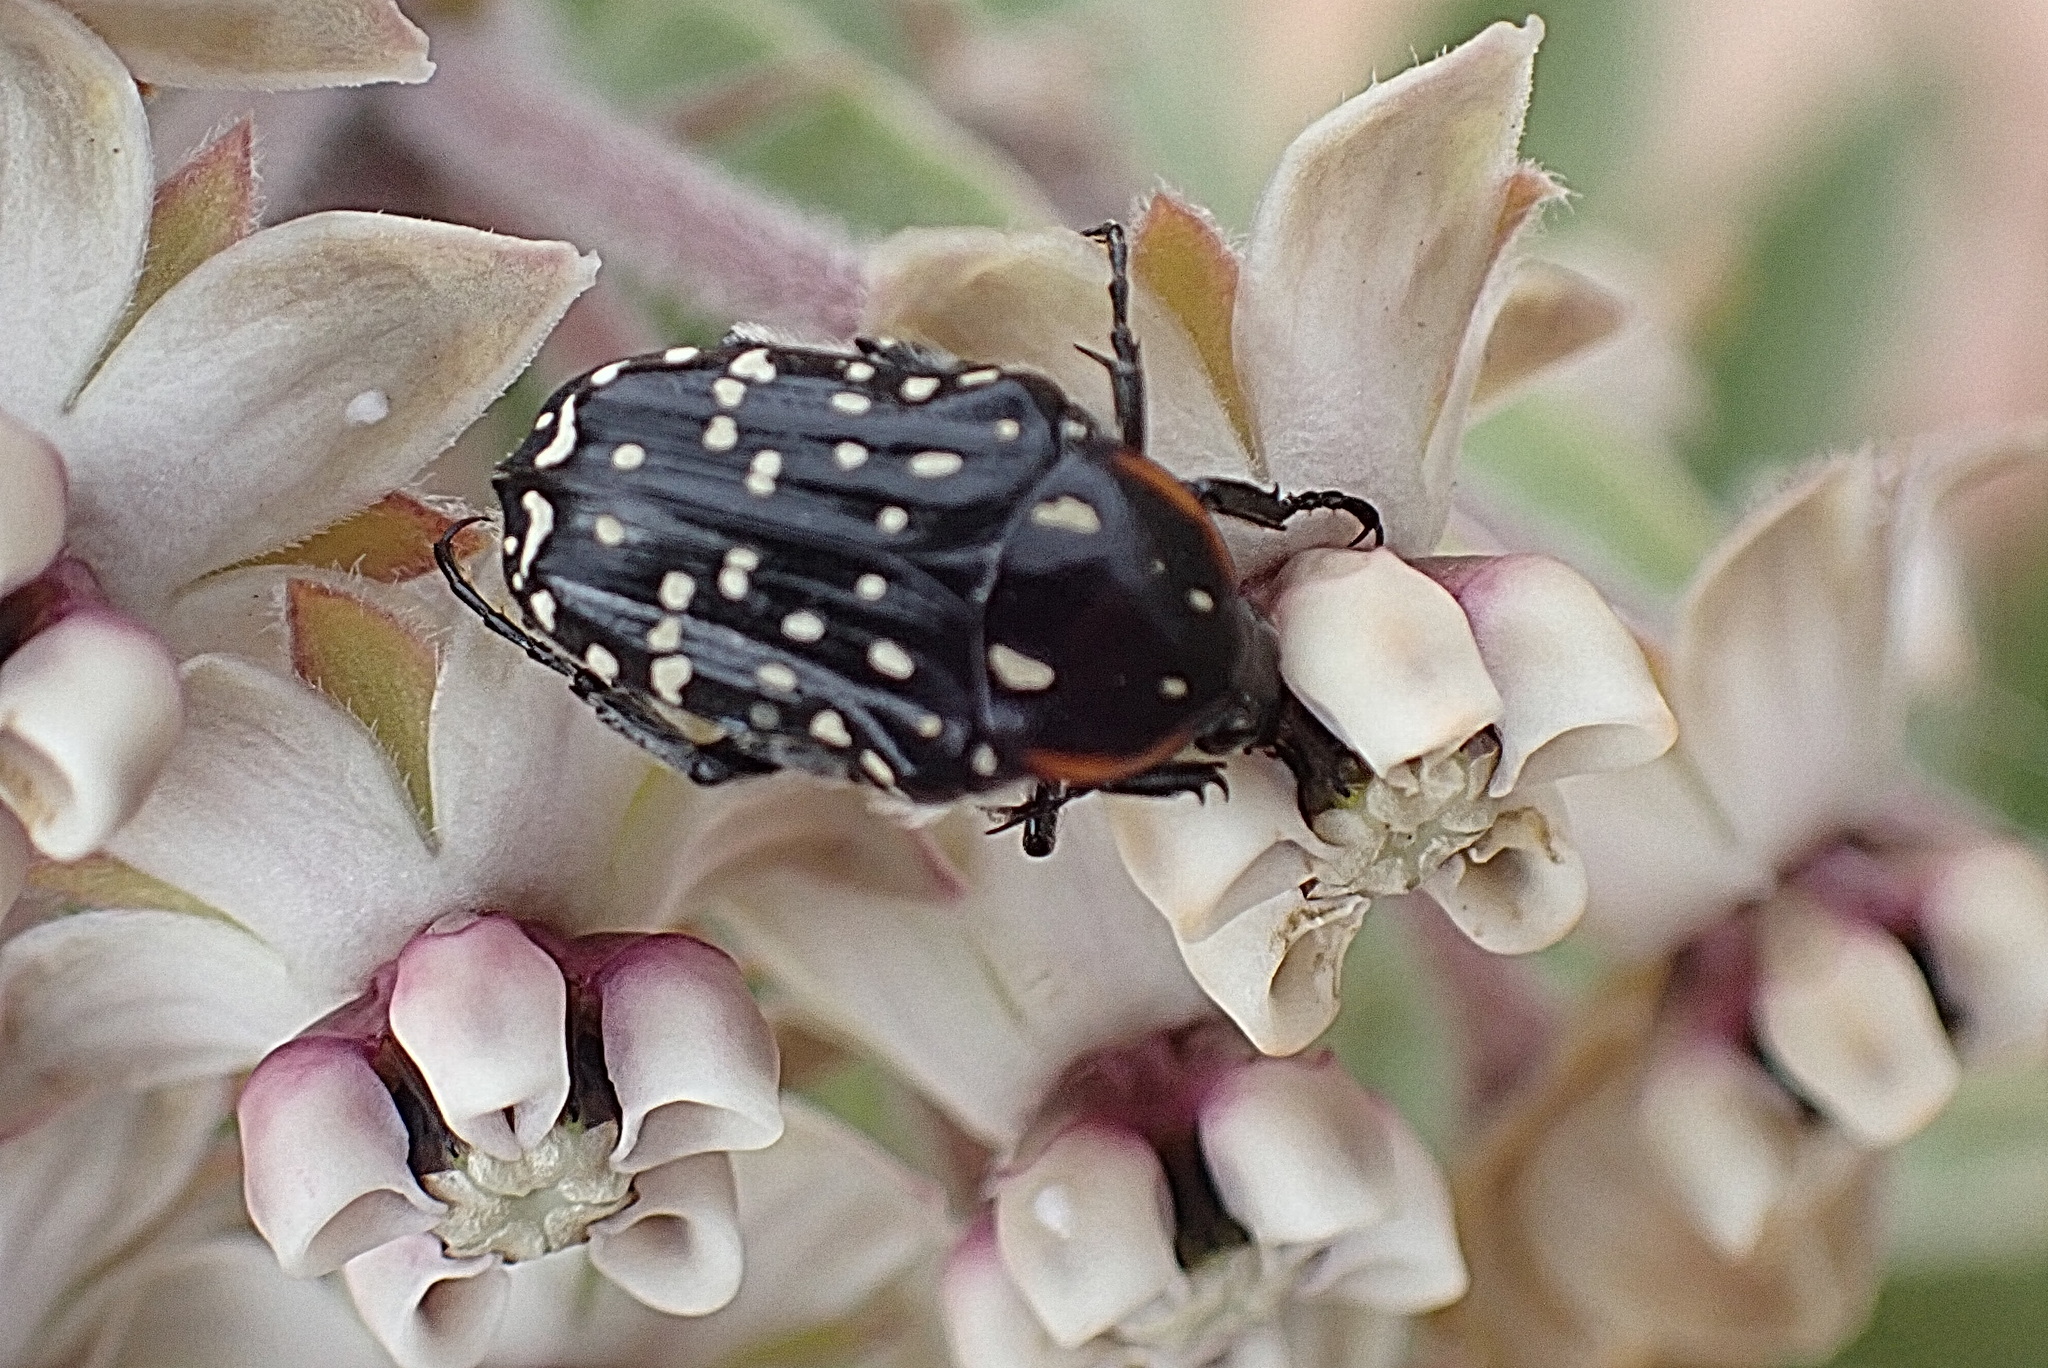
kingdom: Animalia
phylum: Arthropoda
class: Insecta
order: Coleoptera
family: Scarabaeidae
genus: Oxythyrea
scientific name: Oxythyrea
